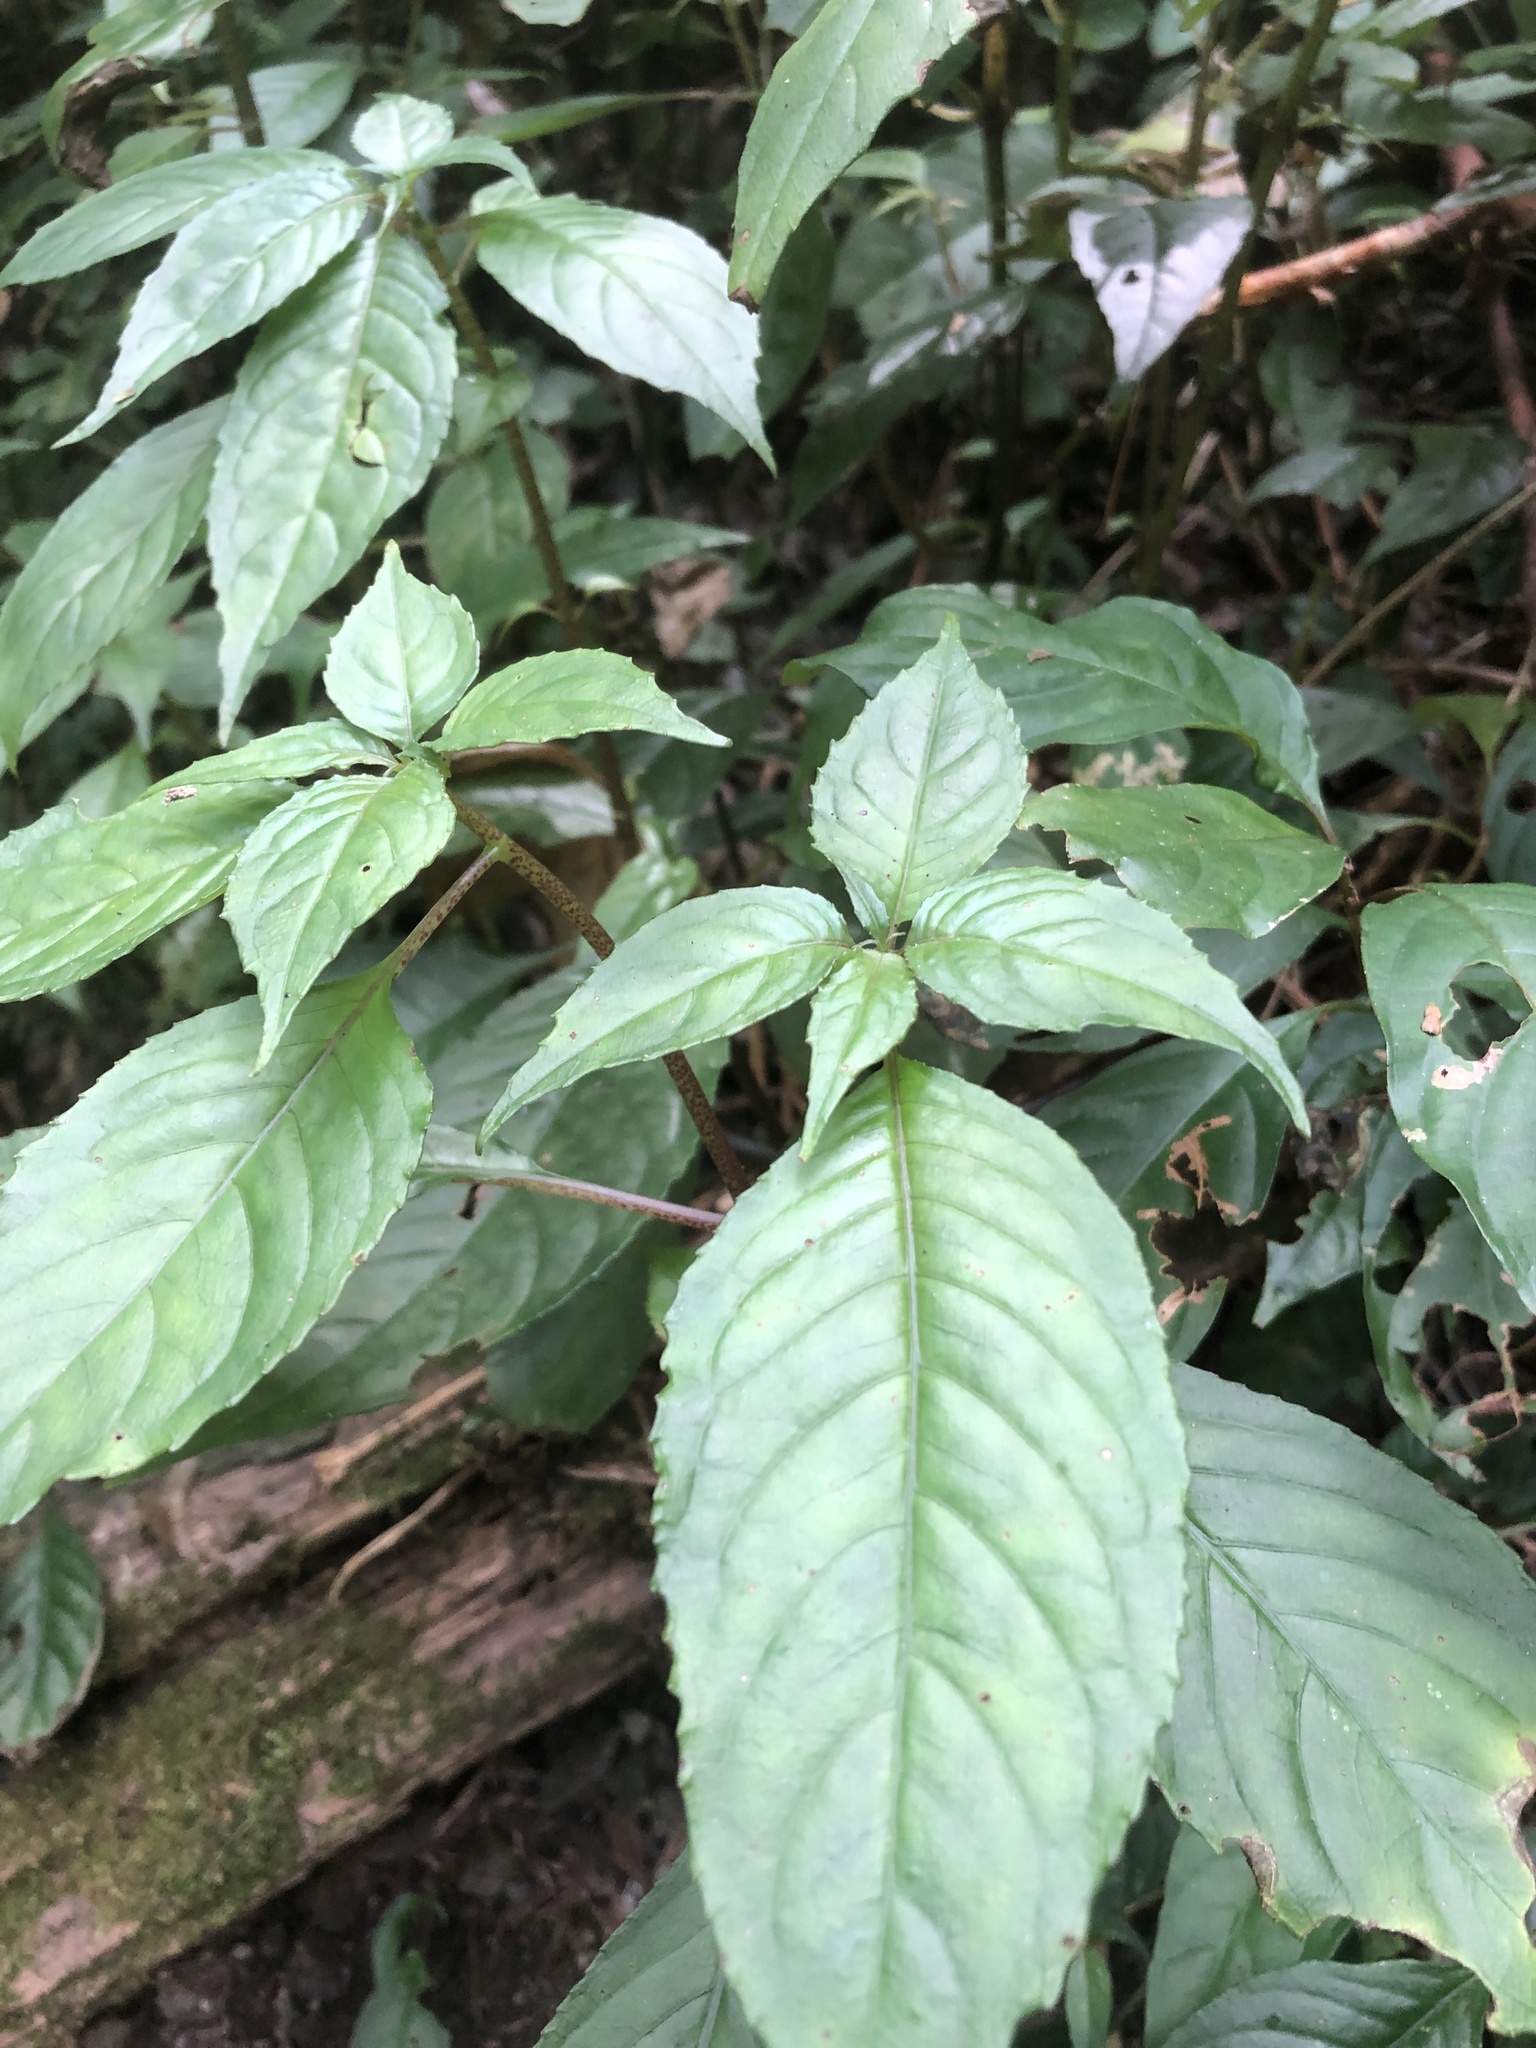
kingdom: Plantae
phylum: Tracheophyta
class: Magnoliopsida
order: Lamiales
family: Gesneriaceae
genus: Hemiboea
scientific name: Hemiboea bicornuta
